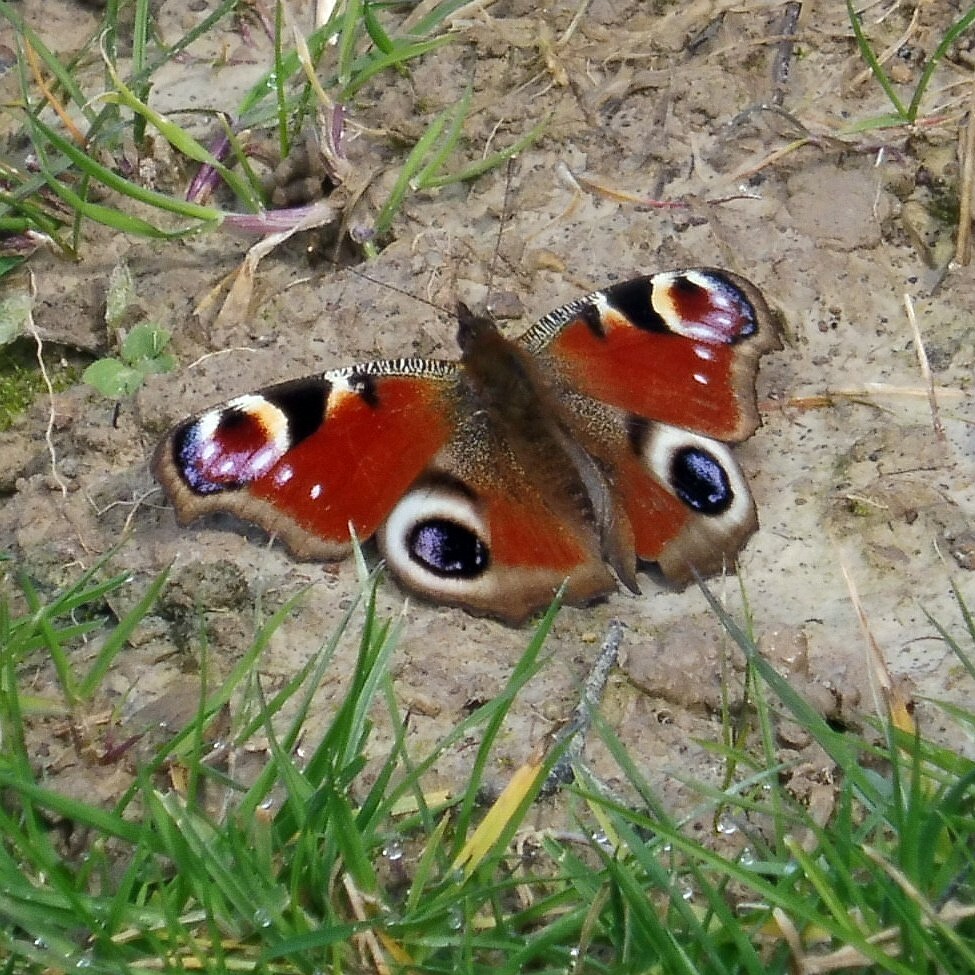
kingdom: Animalia
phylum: Arthropoda
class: Insecta
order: Lepidoptera
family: Nymphalidae
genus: Aglais
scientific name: Aglais io
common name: Peacock
